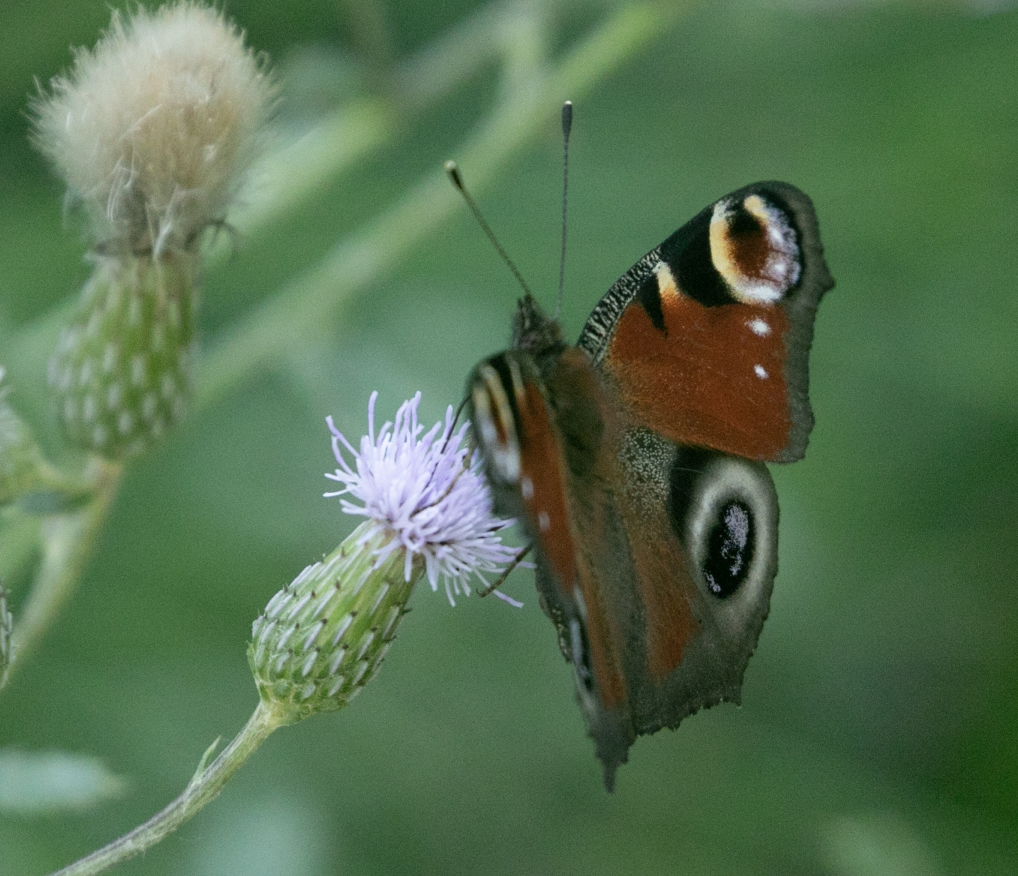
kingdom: Animalia
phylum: Arthropoda
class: Insecta
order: Lepidoptera
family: Nymphalidae
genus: Aglais
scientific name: Aglais io
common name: Peacock
